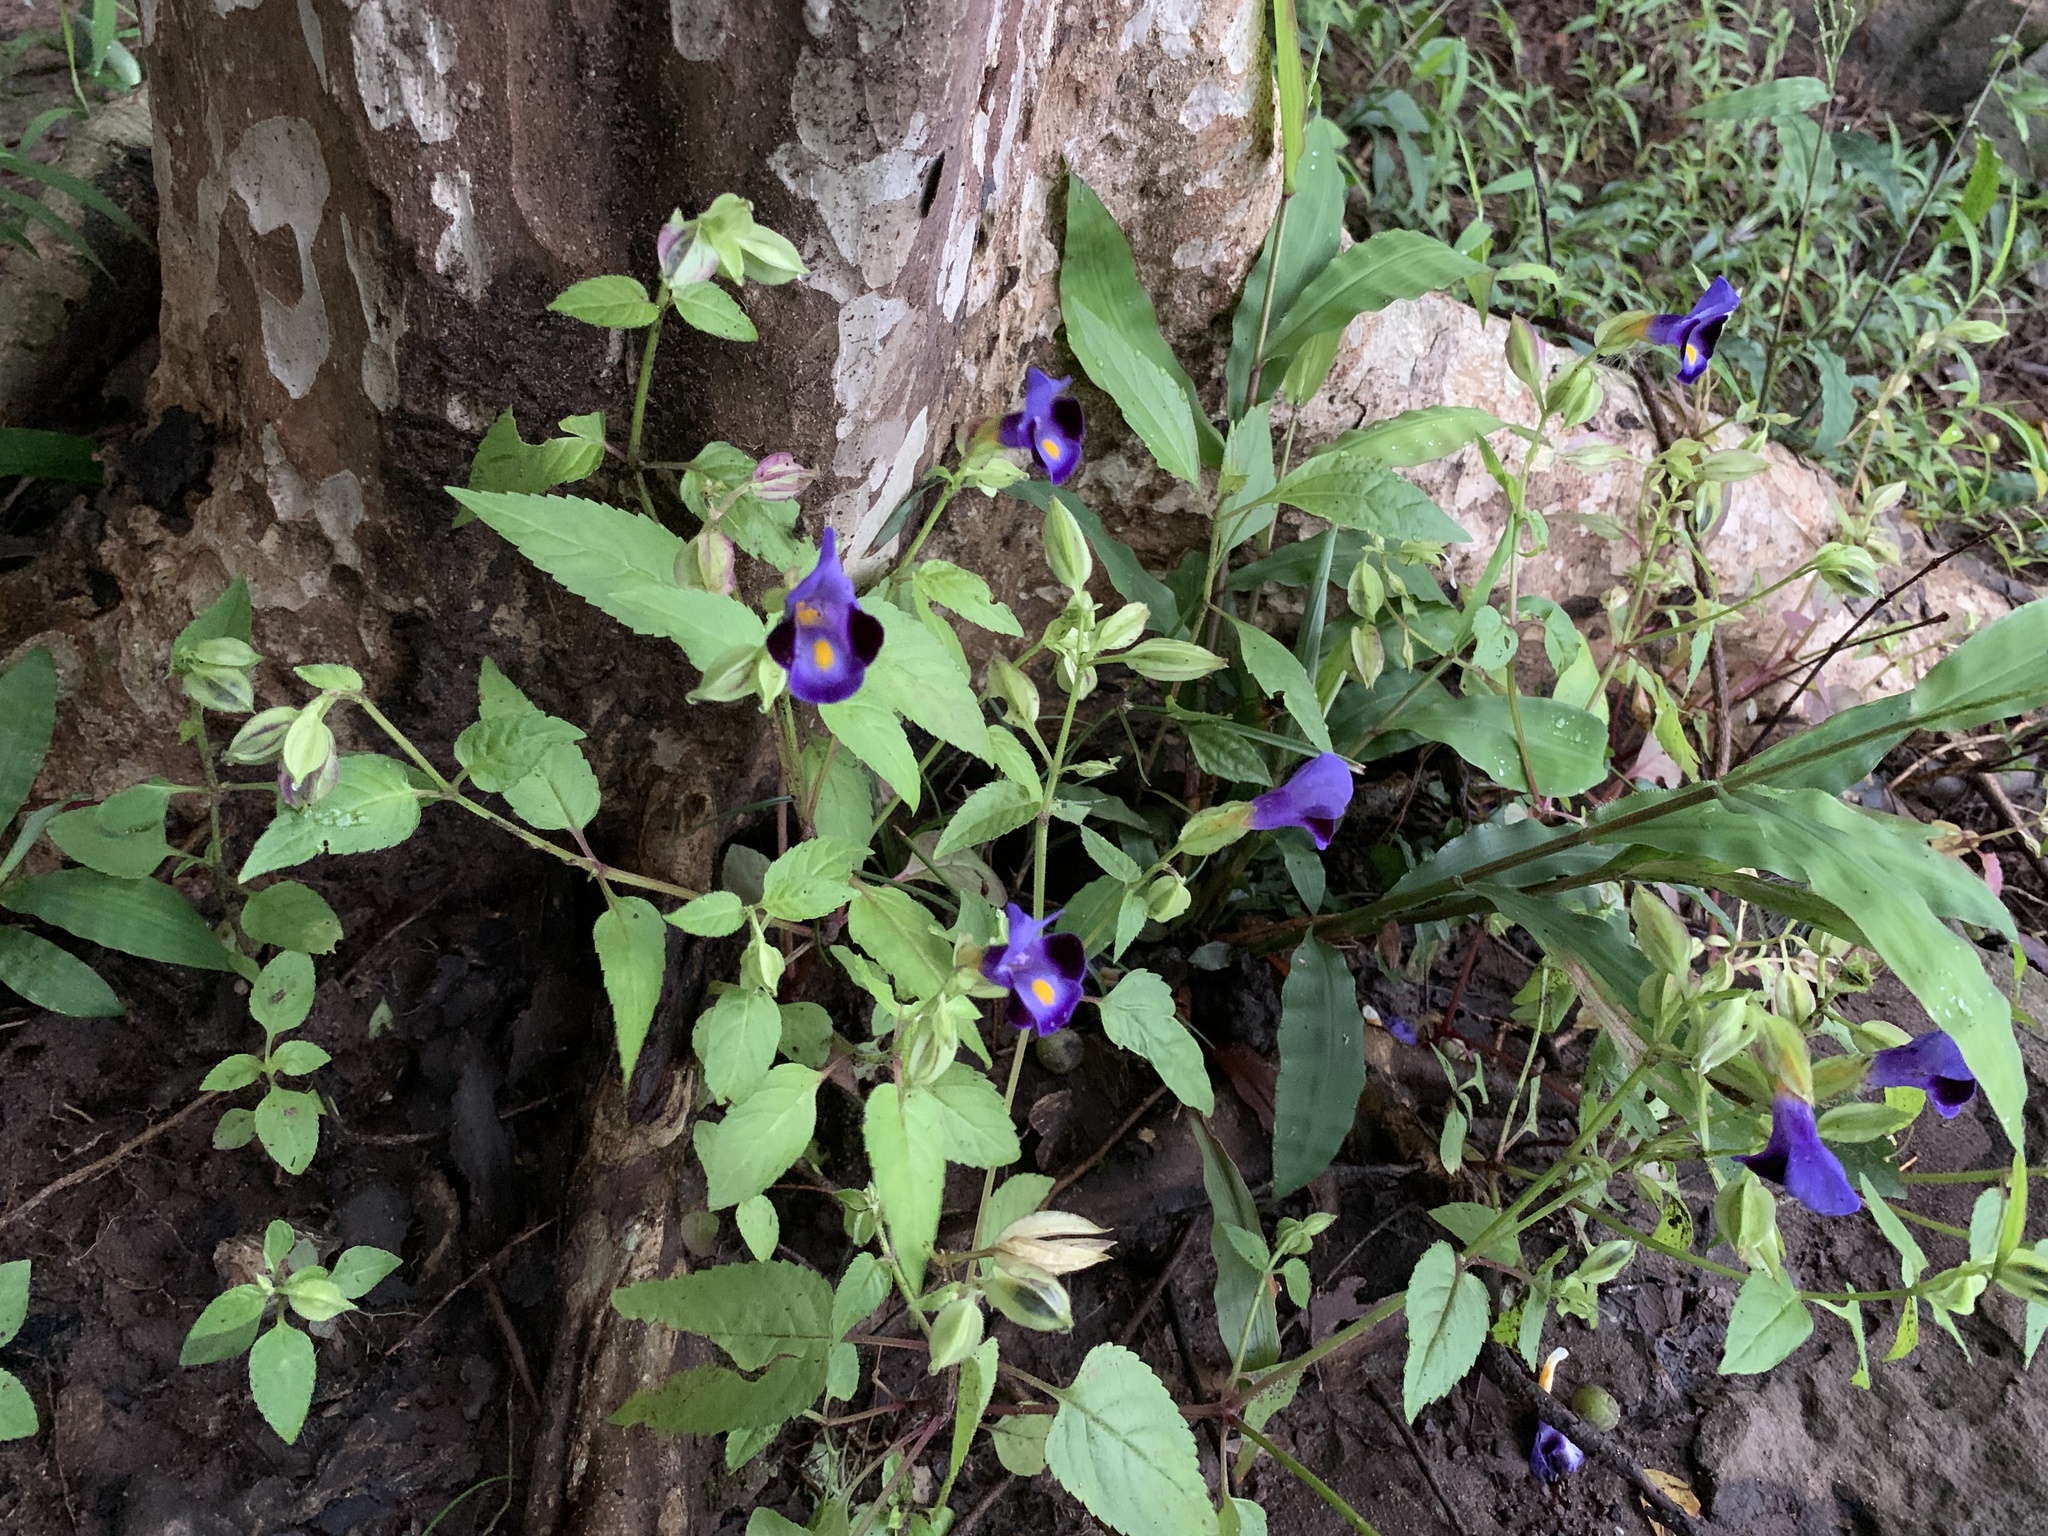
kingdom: Plantae
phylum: Tracheophyta
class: Magnoliopsida
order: Lamiales
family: Linderniaceae
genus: Torenia
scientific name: Torenia fournieri
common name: Bluewings
